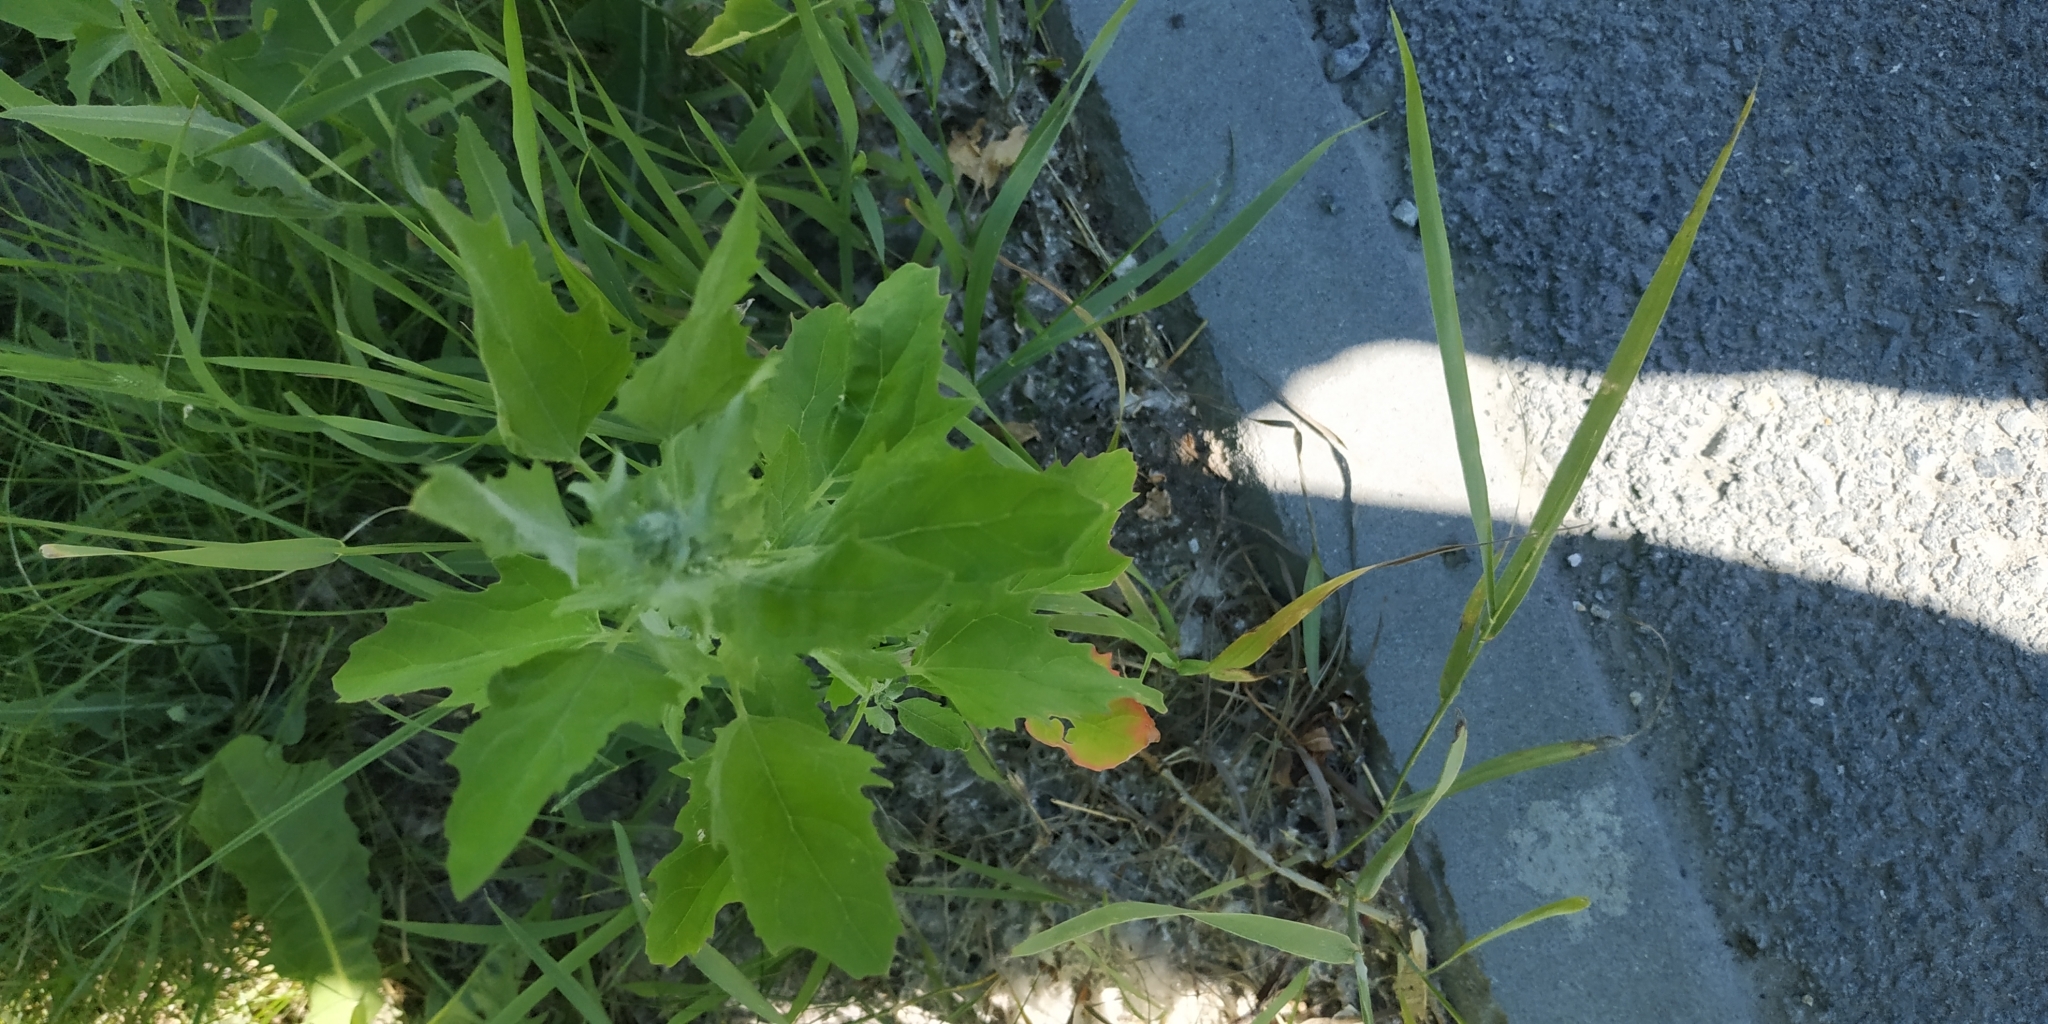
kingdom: Plantae
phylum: Tracheophyta
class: Magnoliopsida
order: Caryophyllales
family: Amaranthaceae
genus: Chenopodium
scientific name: Chenopodium album
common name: Fat-hen
